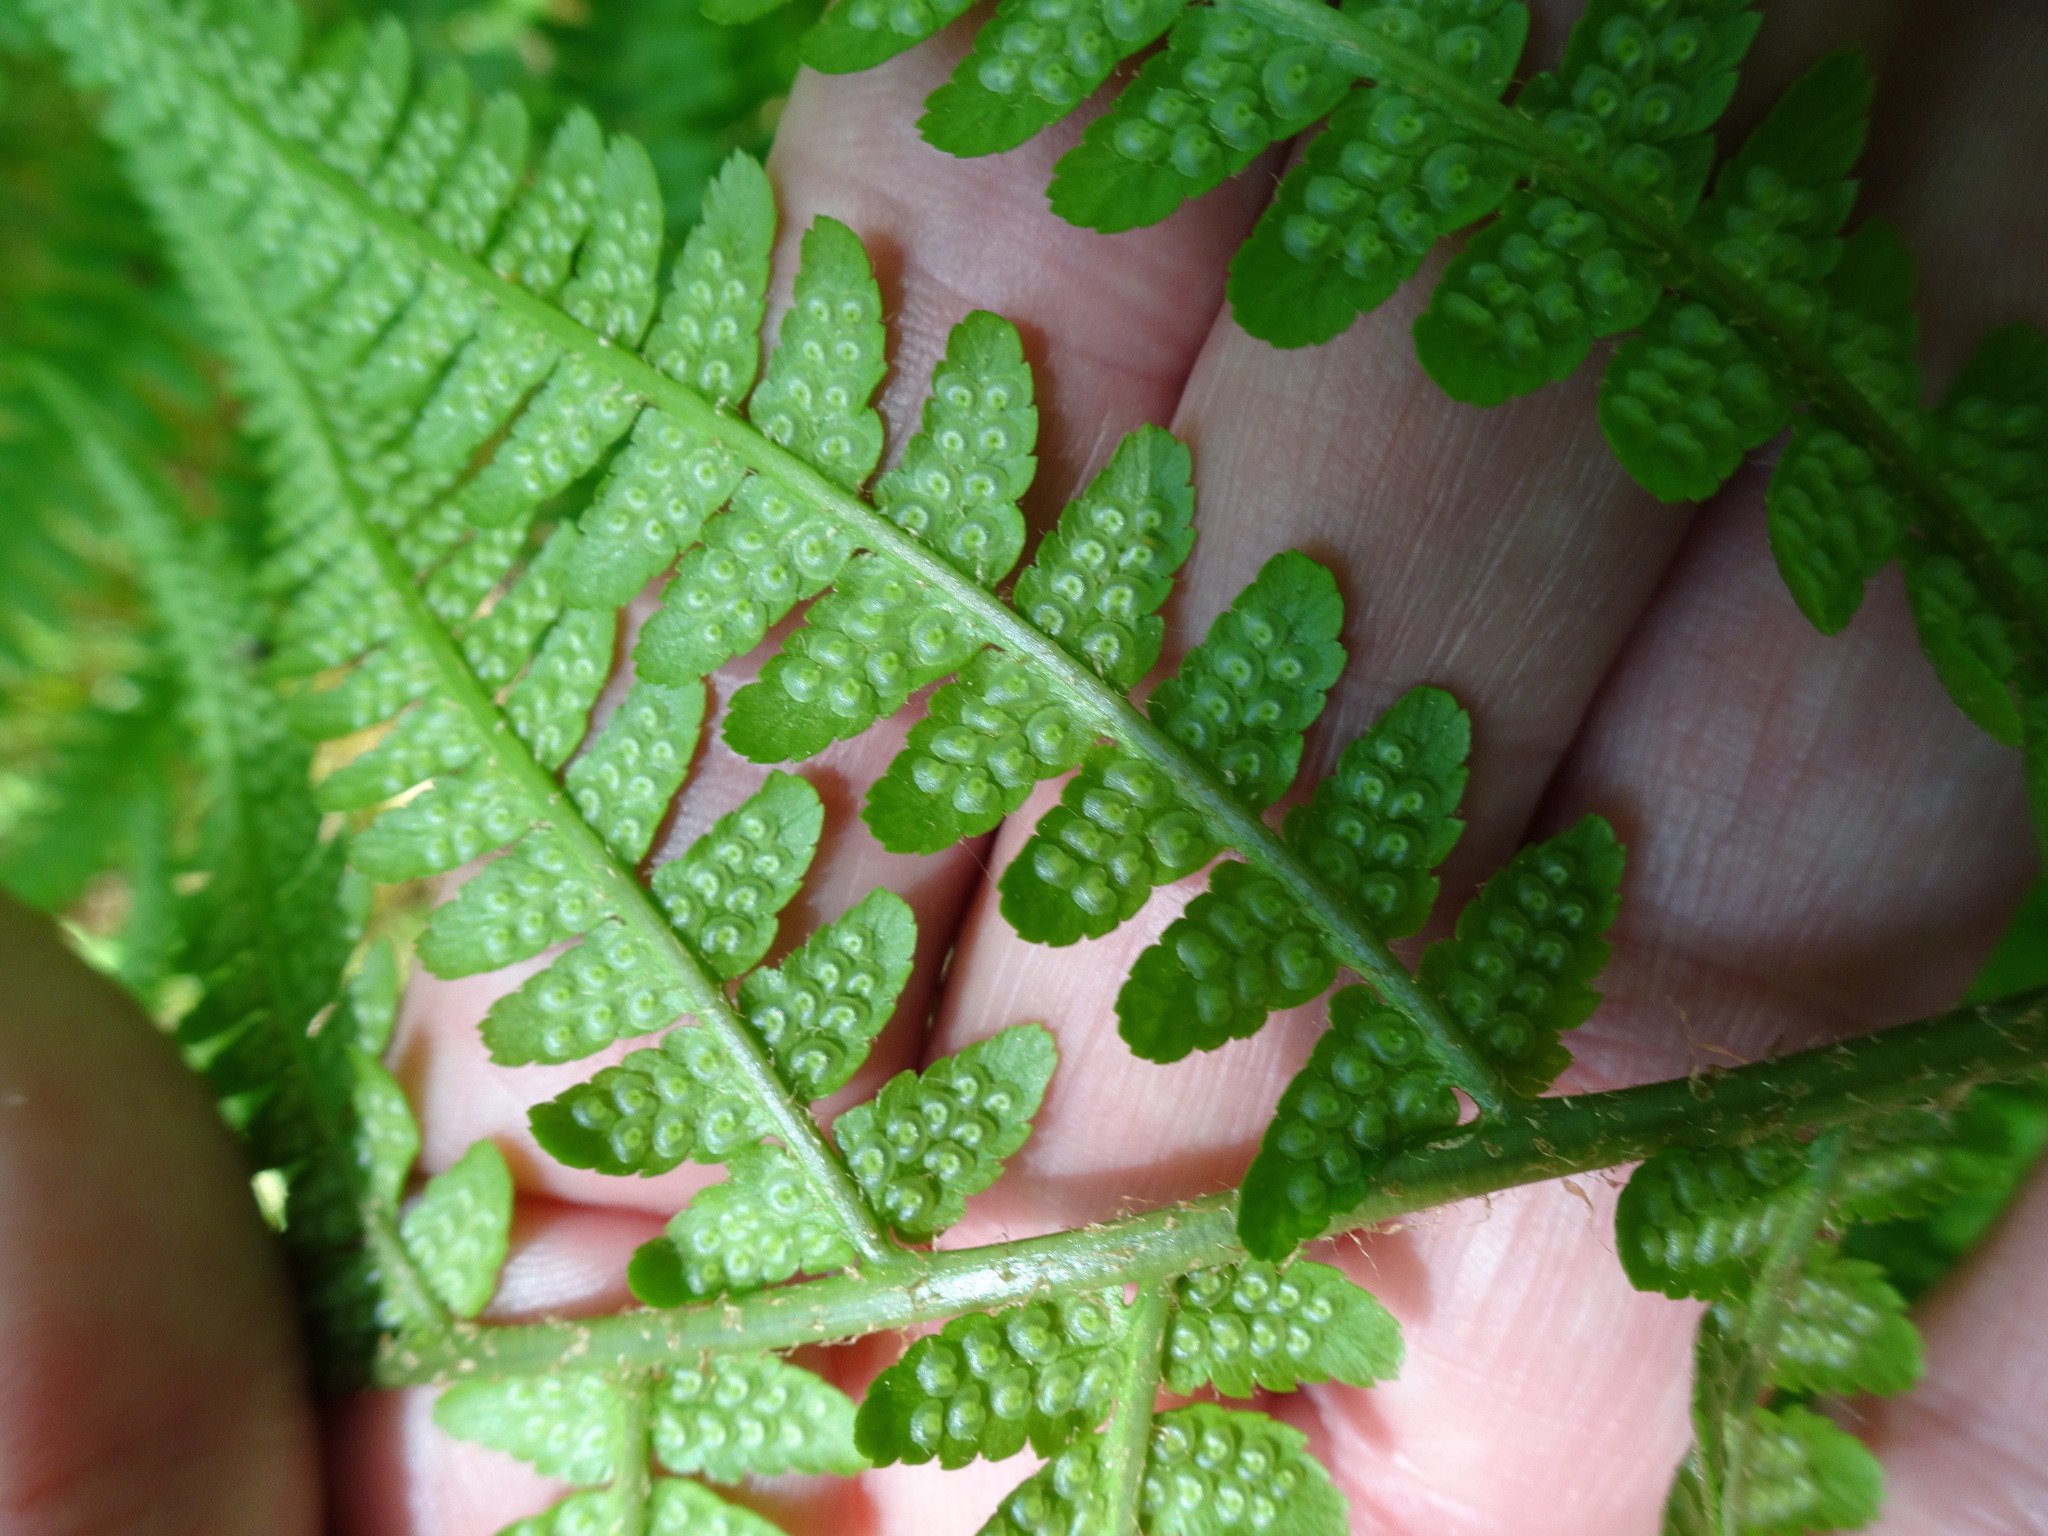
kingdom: Plantae
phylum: Tracheophyta
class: Polypodiopsida
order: Polypodiales
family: Dryopteridaceae
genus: Dryopteris
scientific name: Dryopteris filix-mas
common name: Male fern
